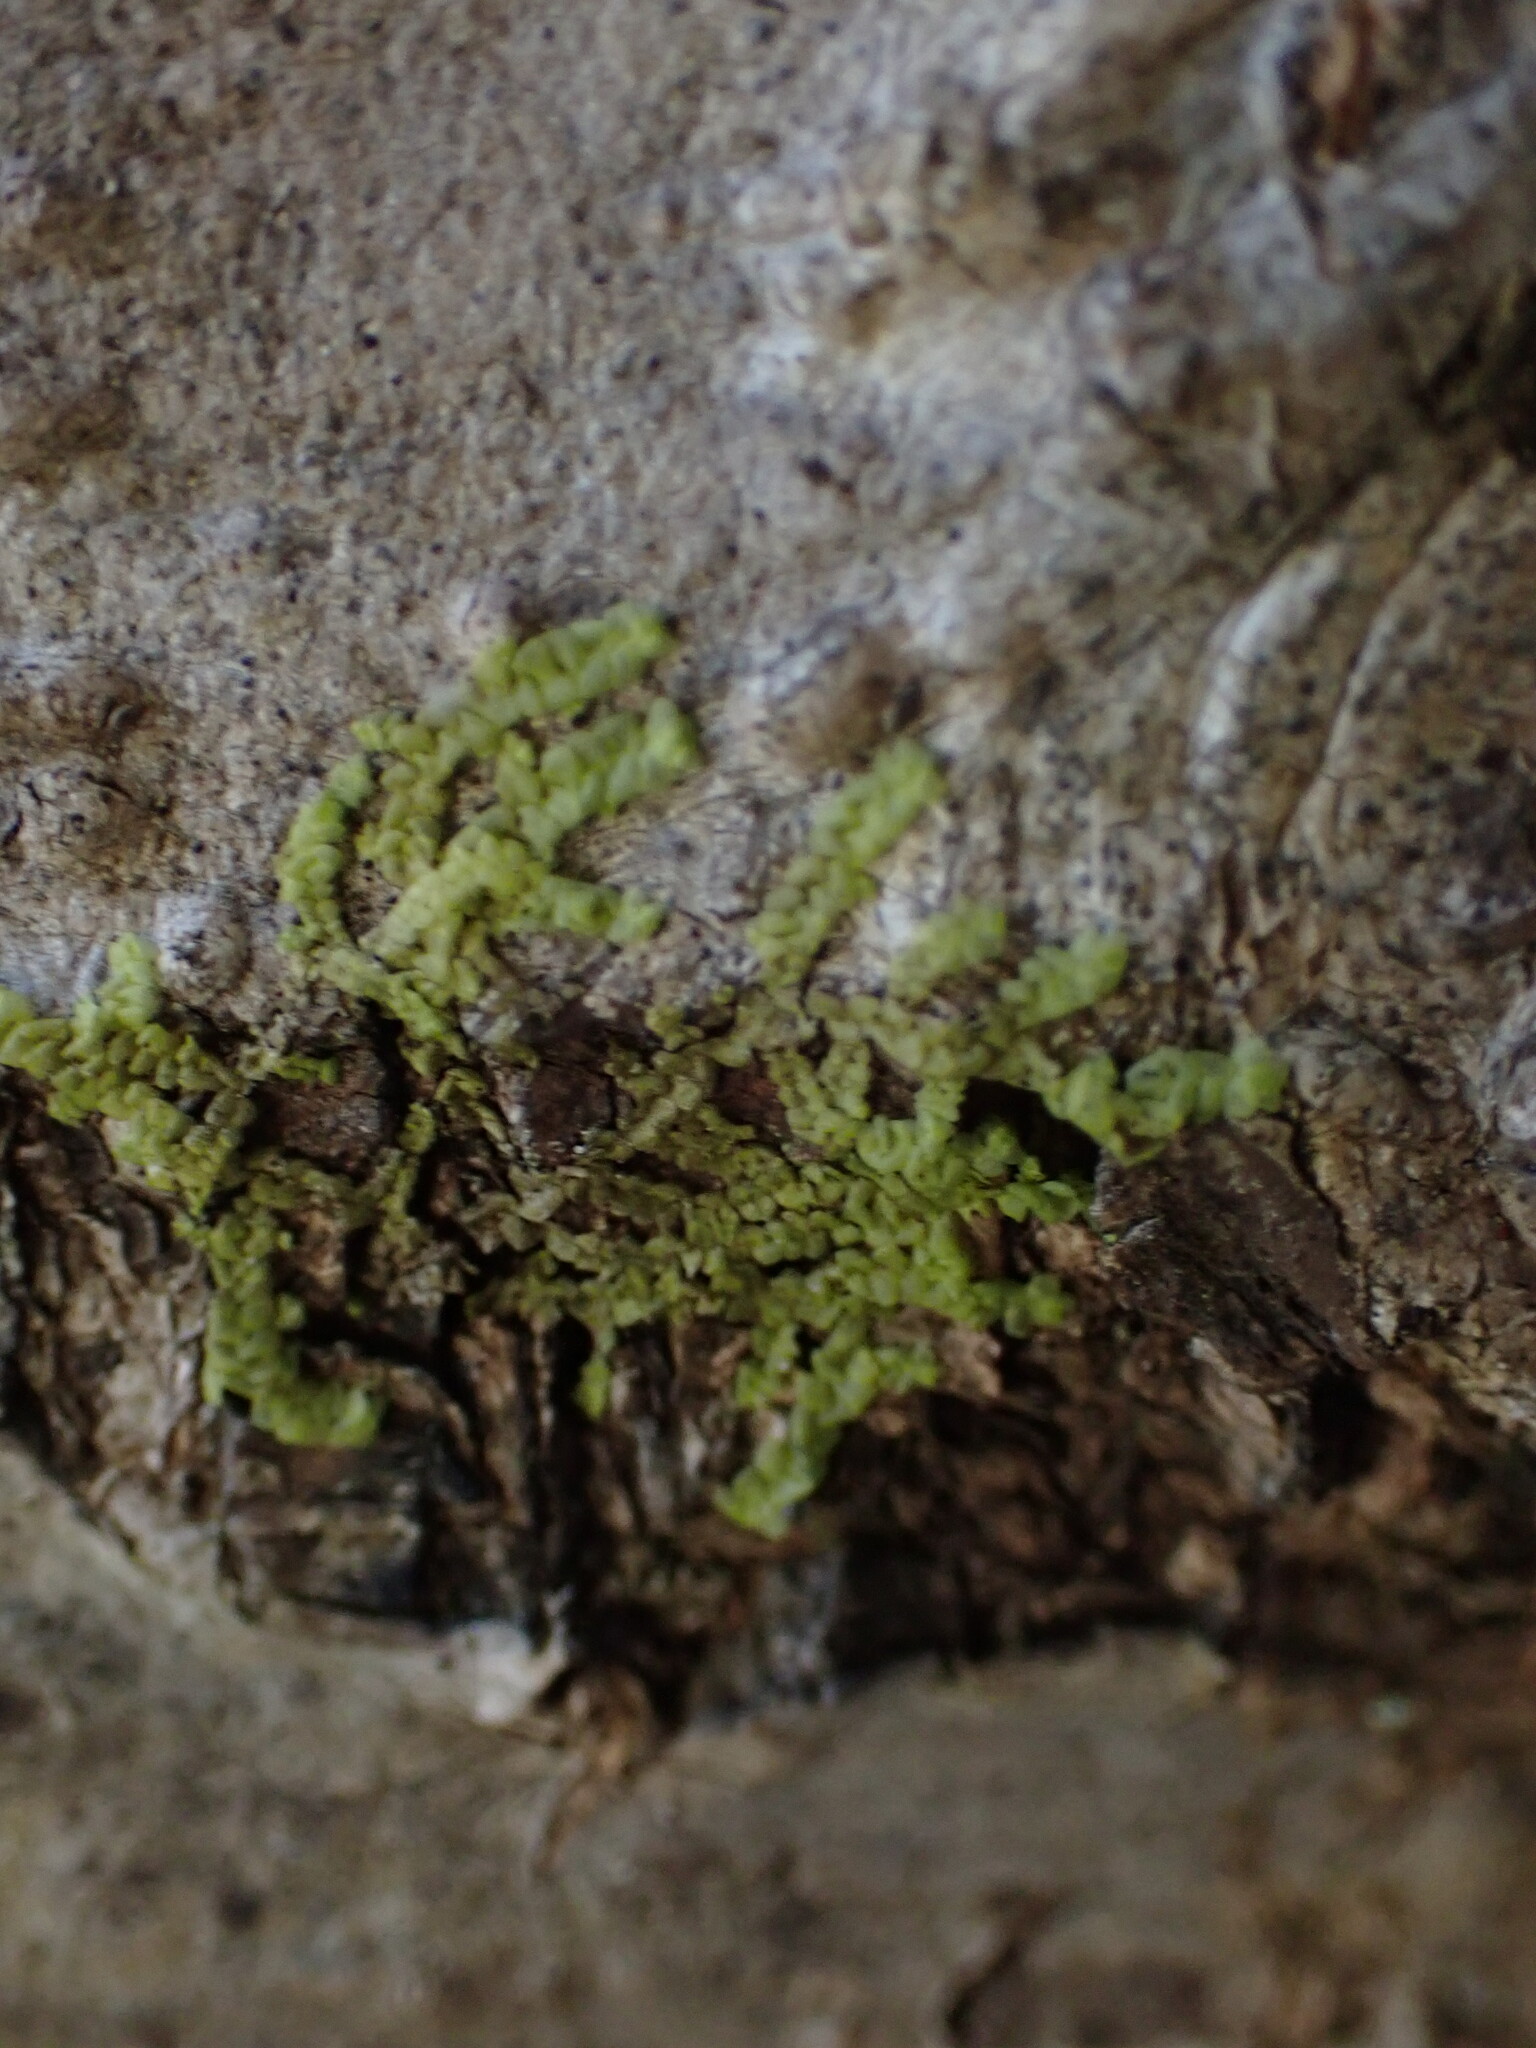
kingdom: Plantae
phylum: Marchantiophyta
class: Jungermanniopsida
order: Porellales
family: Radulaceae
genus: Radula
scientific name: Radula complanata
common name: Flat-leaved scalewort
